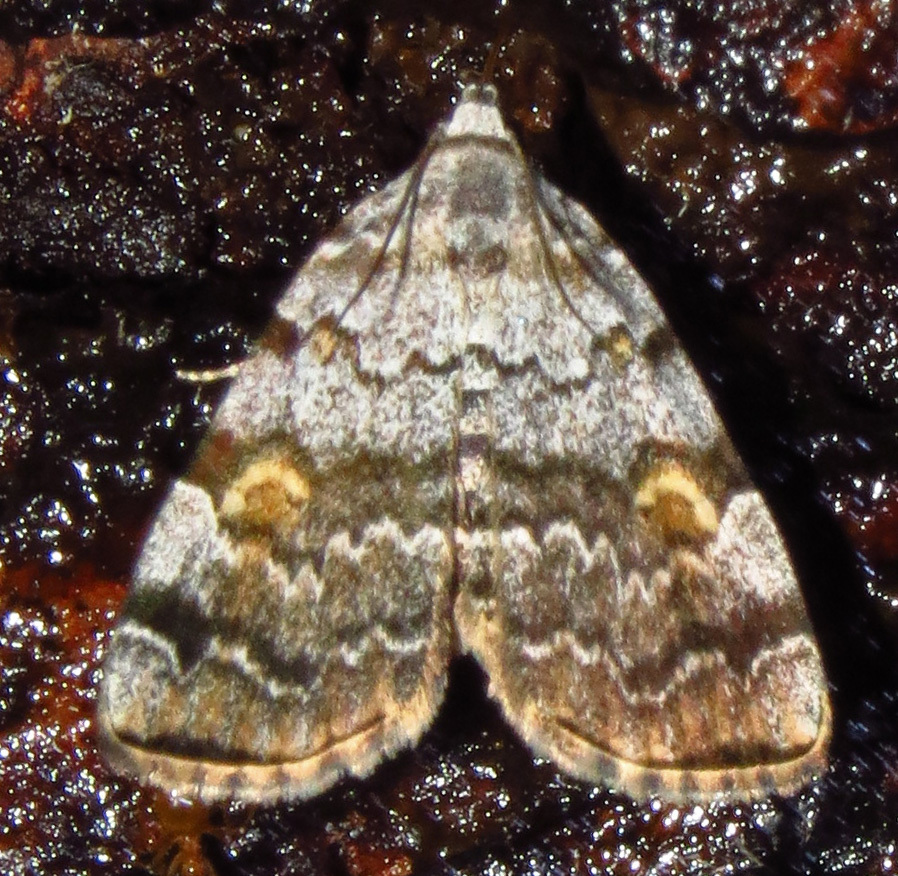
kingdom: Animalia
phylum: Arthropoda
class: Insecta
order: Lepidoptera
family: Erebidae
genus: Idia
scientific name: Idia americalis
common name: American idia moth
